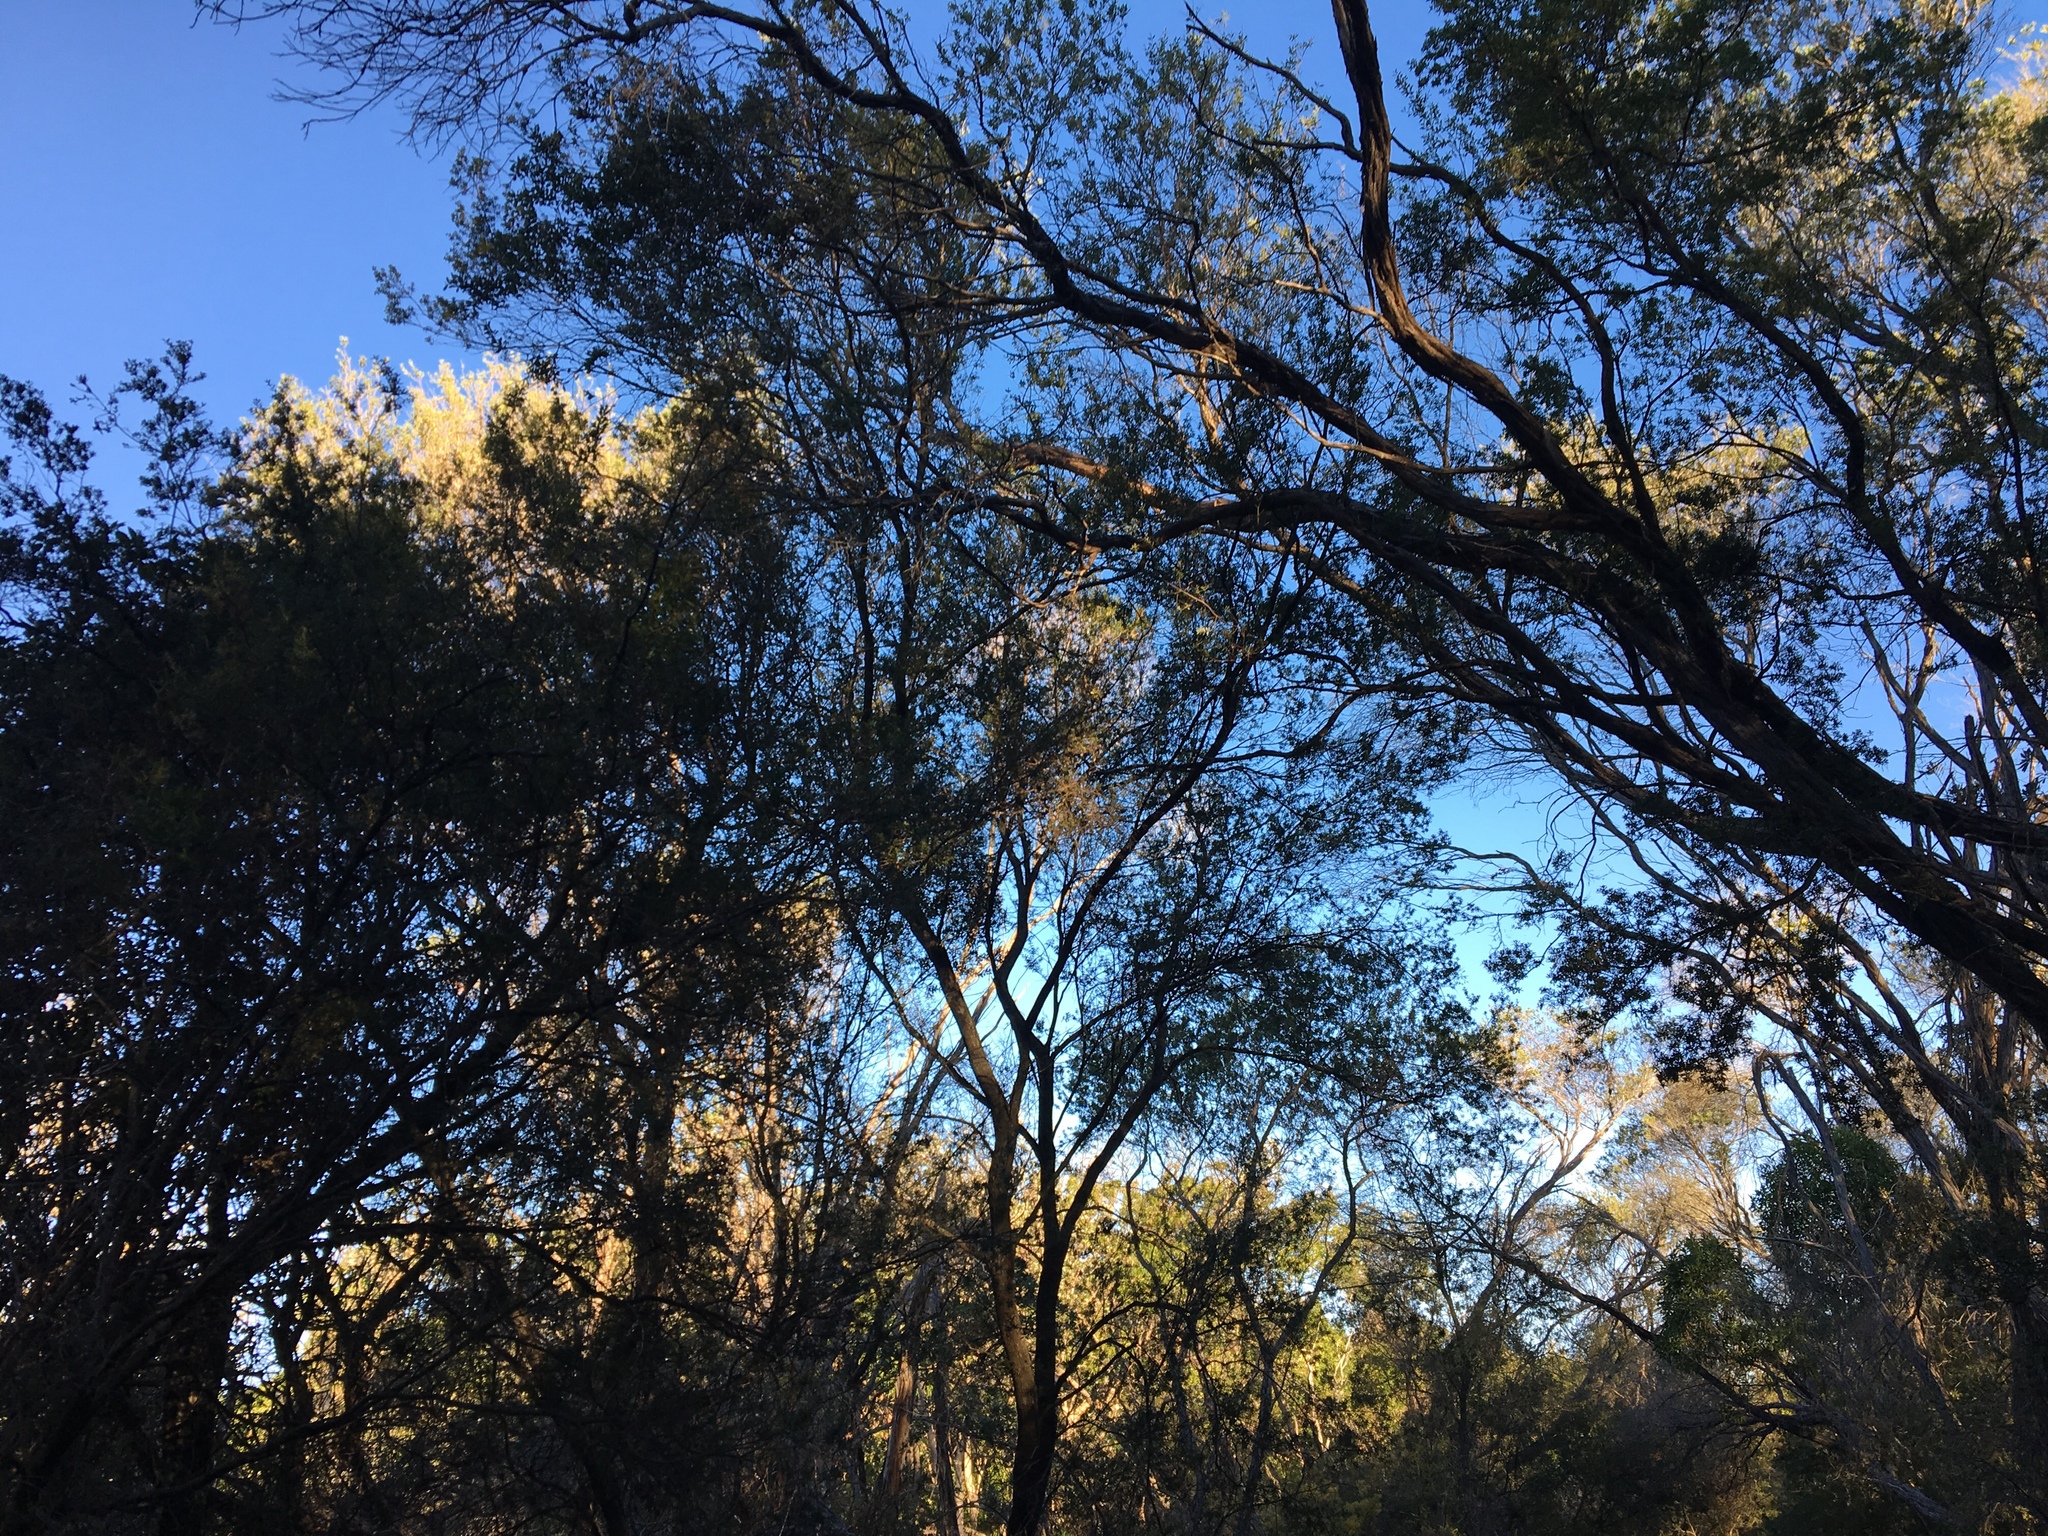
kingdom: Plantae
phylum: Tracheophyta
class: Magnoliopsida
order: Ericales
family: Ericaceae
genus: Monotoca
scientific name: Monotoca elliptica
